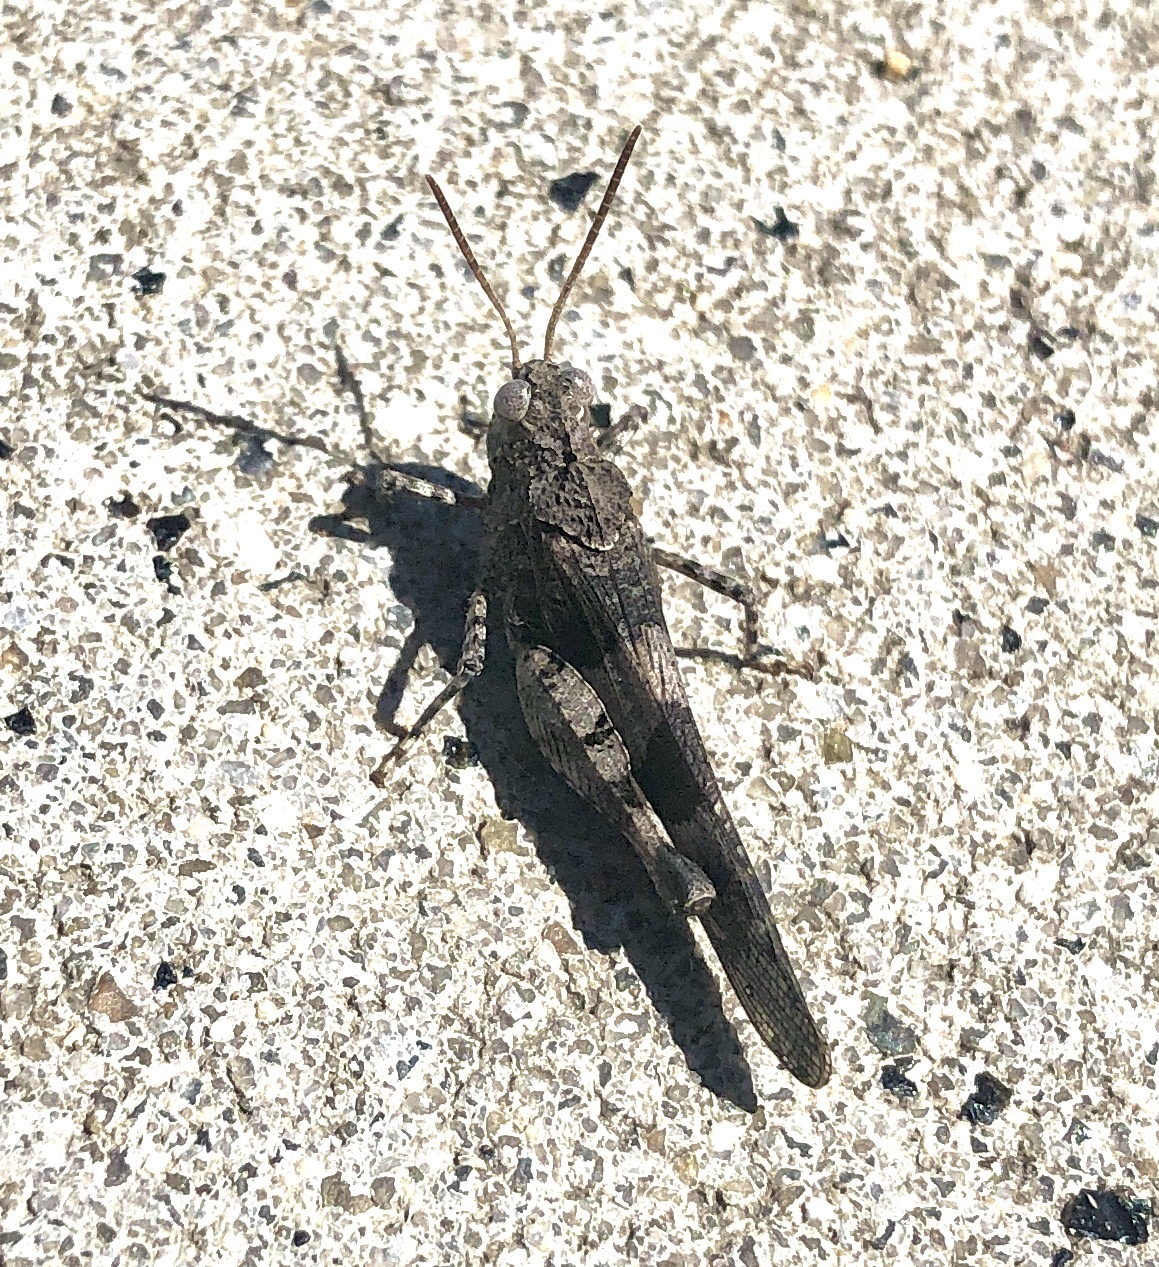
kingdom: Animalia
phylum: Arthropoda
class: Insecta
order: Orthoptera
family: Acrididae
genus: Oedipoda
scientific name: Oedipoda caerulescens
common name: Blue-winged grasshopper
